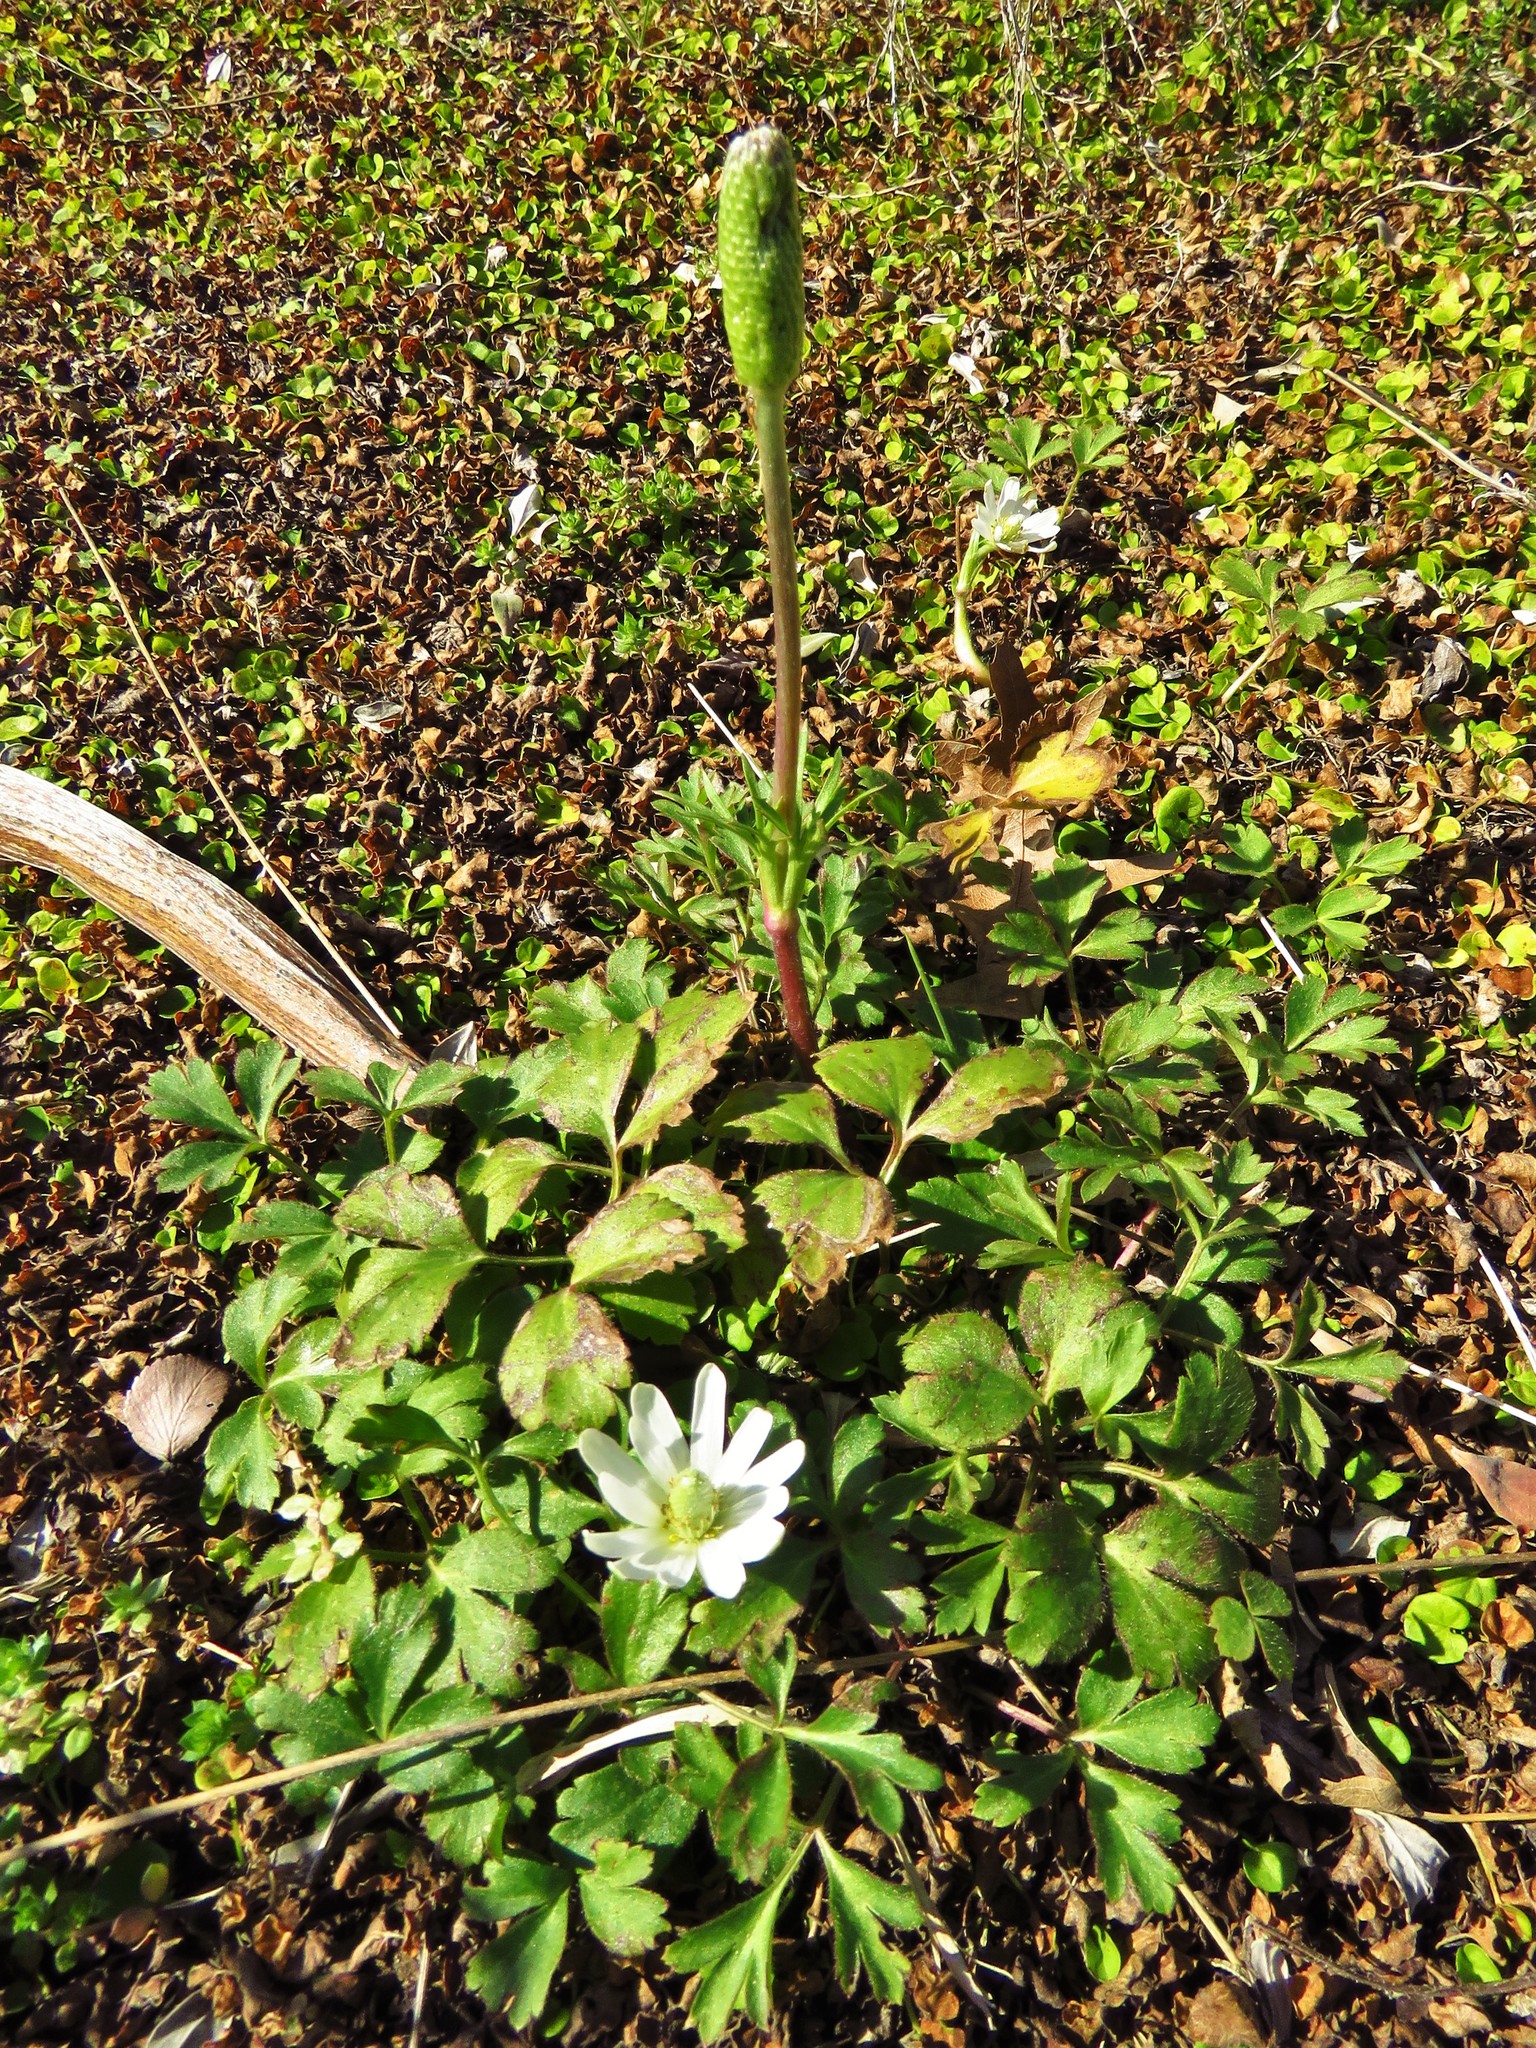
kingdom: Plantae
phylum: Tracheophyta
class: Magnoliopsida
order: Ranunculales
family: Ranunculaceae
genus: Anemone
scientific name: Anemone berlandieri
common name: Ten-petal anemone
